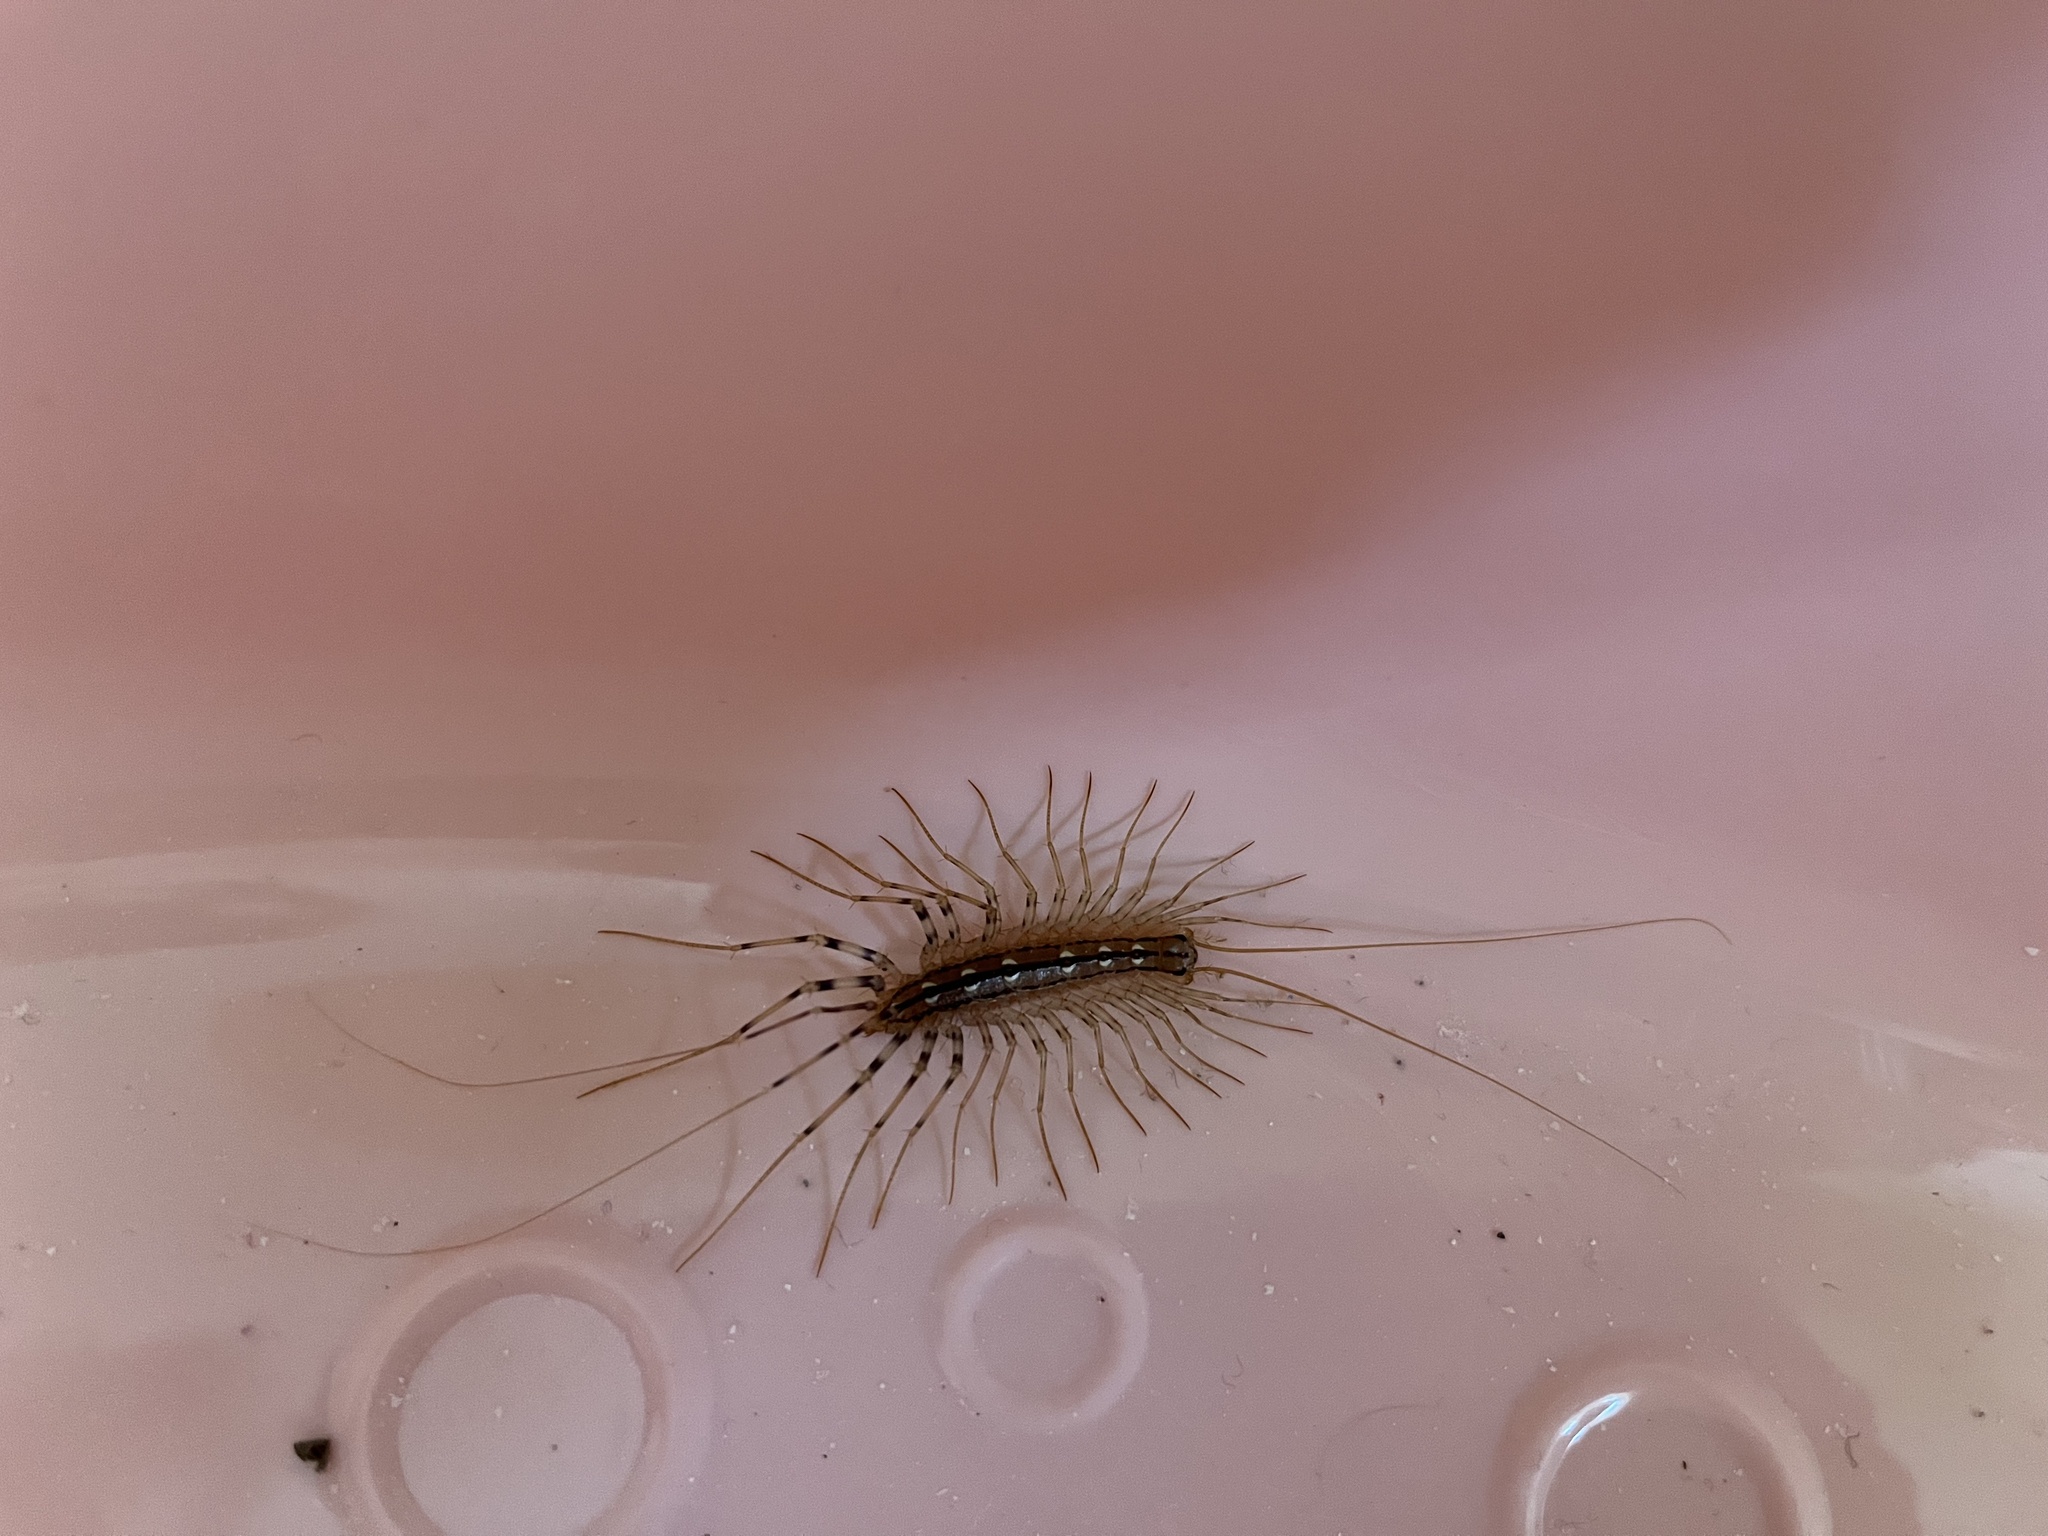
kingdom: Animalia
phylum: Arthropoda
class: Chilopoda
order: Scutigeromorpha
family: Scutigeridae
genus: Scutigera
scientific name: Scutigera coleoptrata
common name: House centipede
